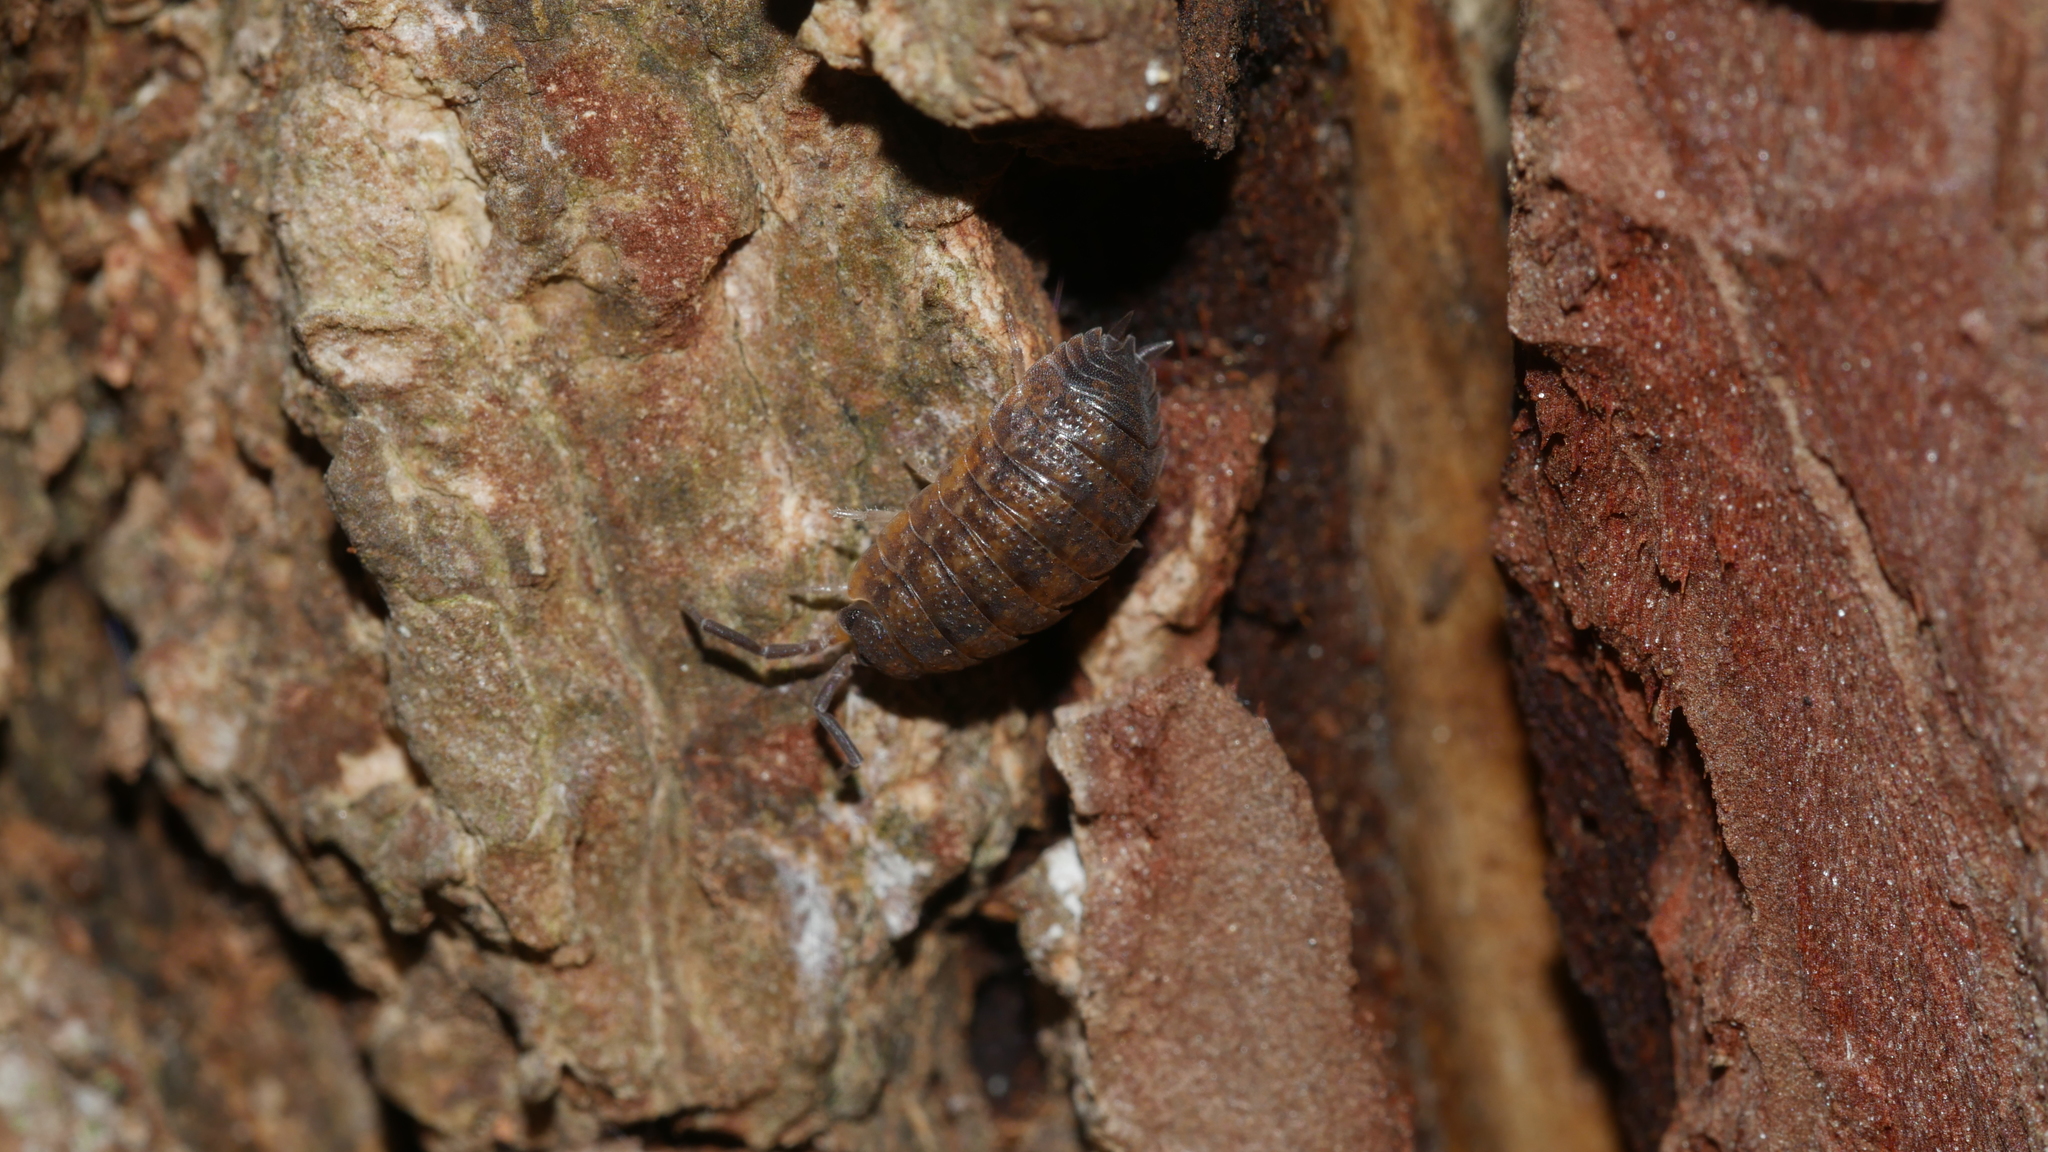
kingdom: Animalia
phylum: Arthropoda
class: Malacostraca
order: Isopoda
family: Porcellionidae
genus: Porcellio
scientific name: Porcellio scaber
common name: Common rough woodlouse
